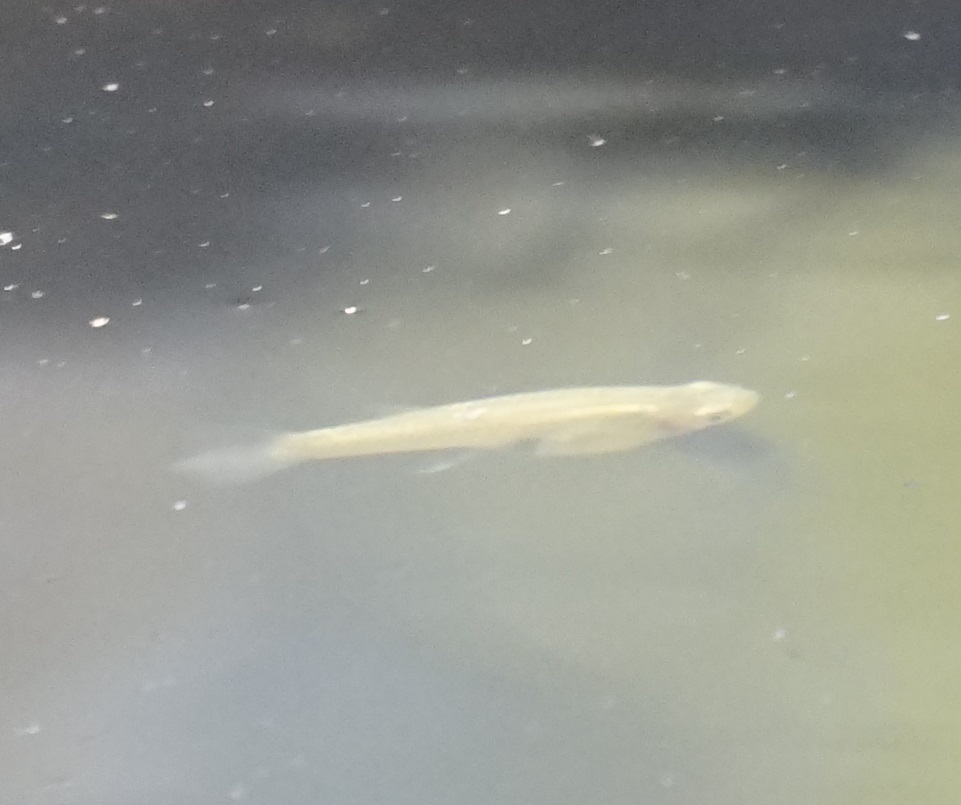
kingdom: Animalia
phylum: Chordata
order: Cyprinodontiformes
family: Poeciliidae
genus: Gambusia
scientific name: Gambusia holbrooki
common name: Eastern mosquitofish
